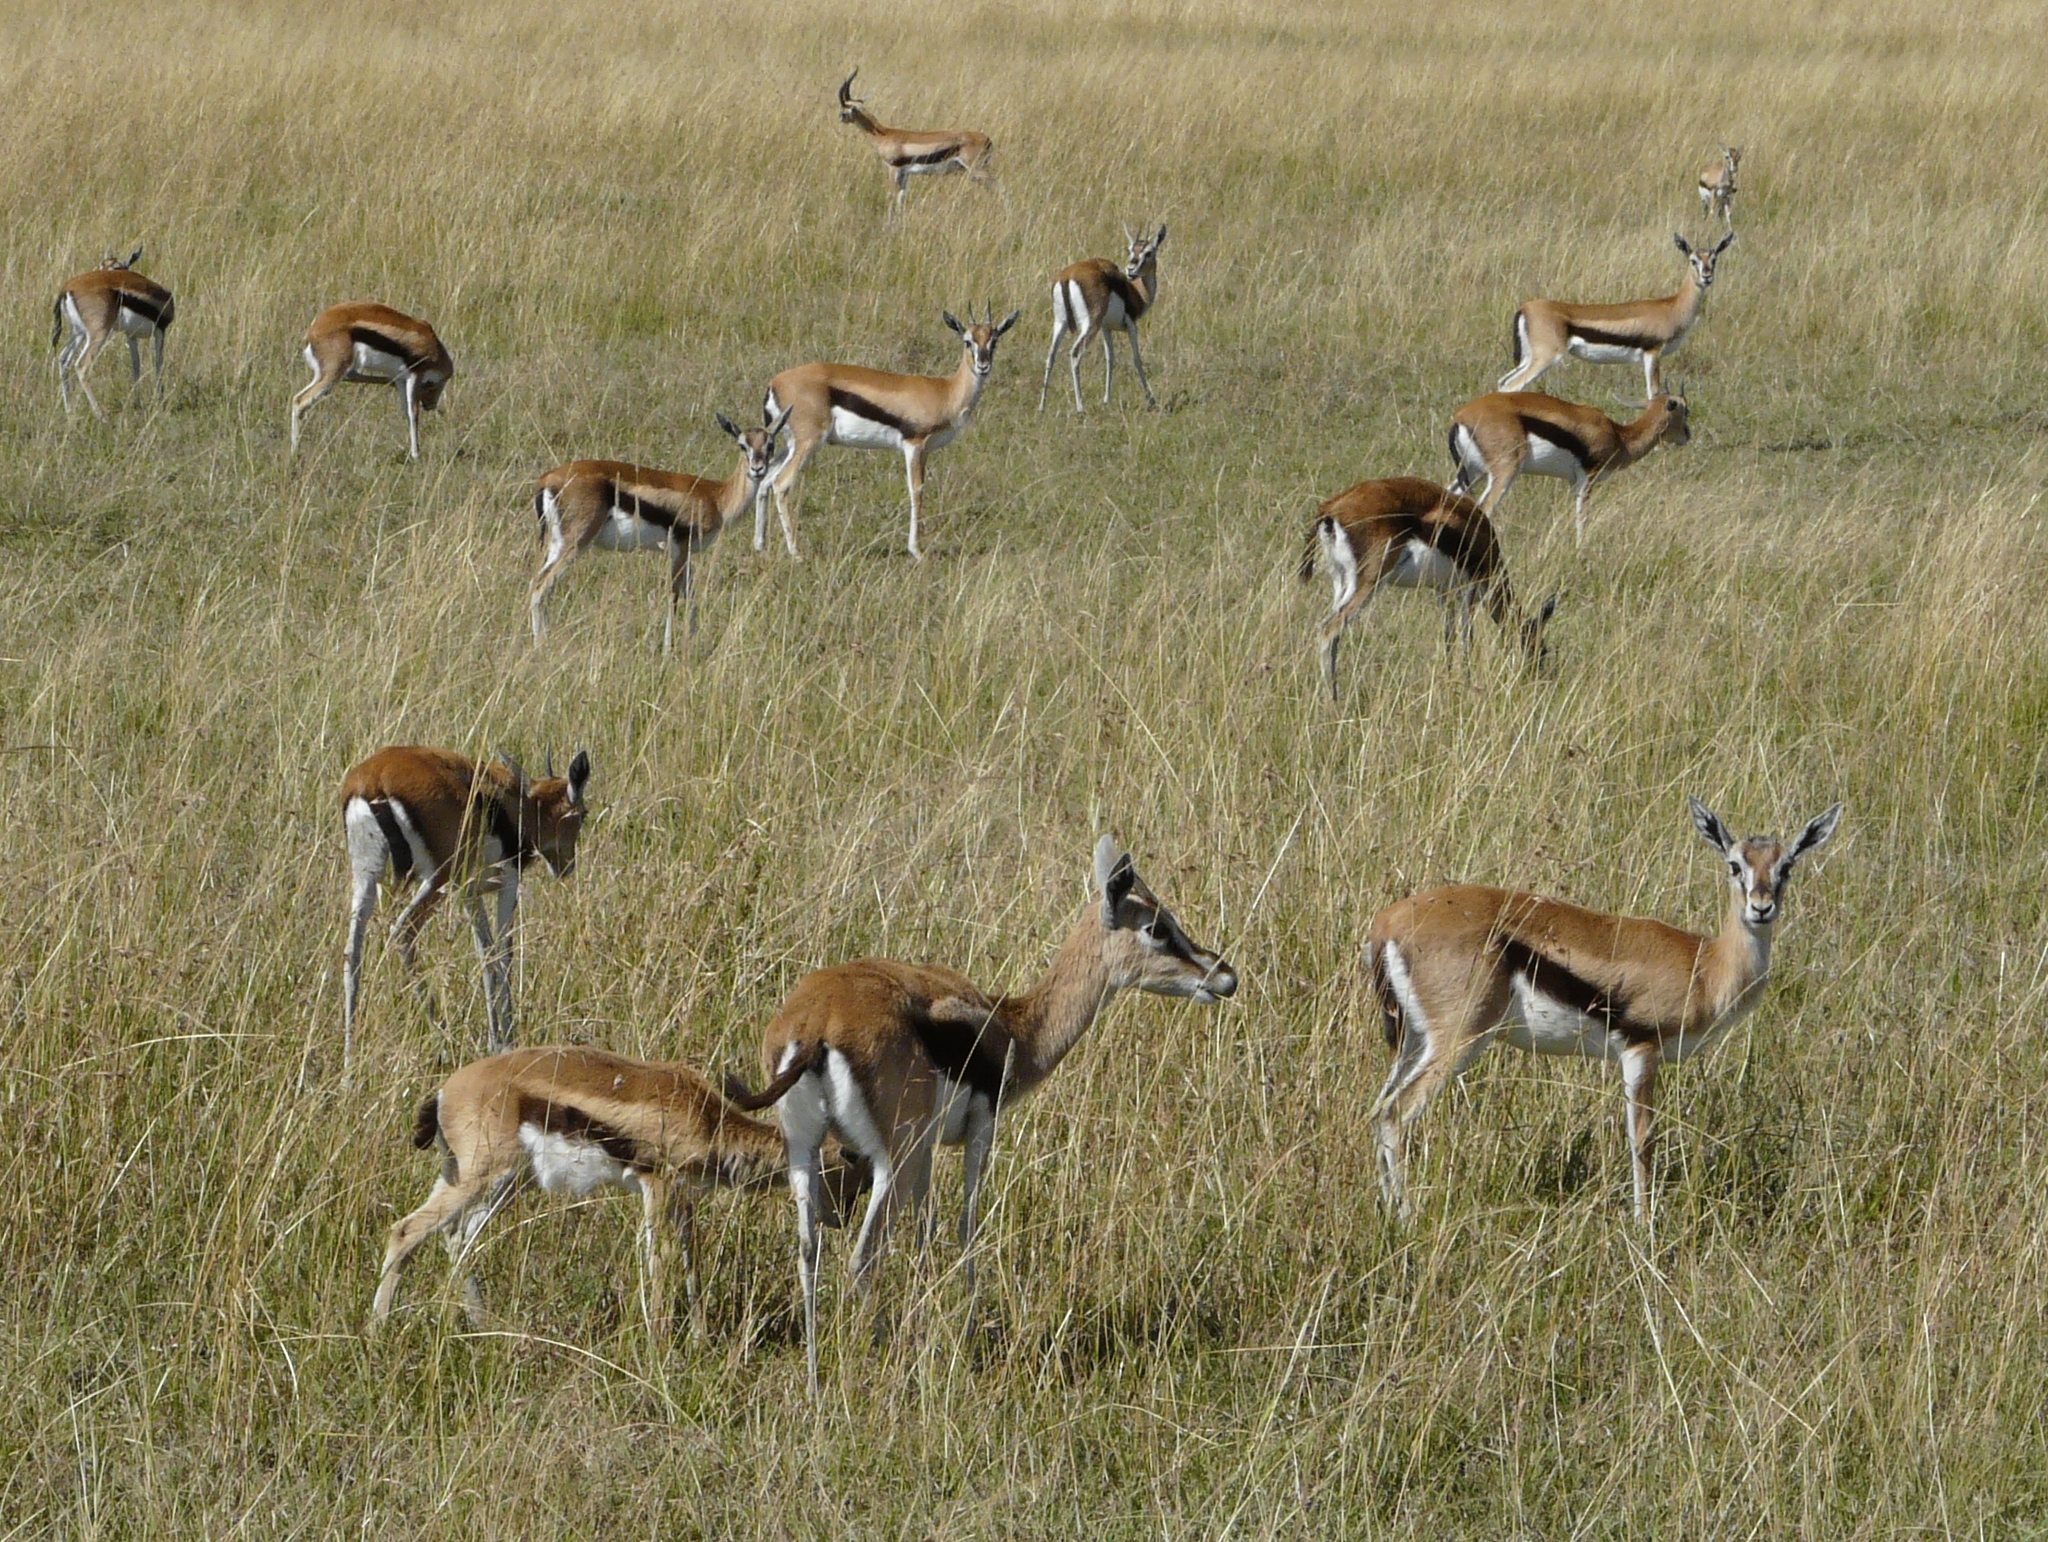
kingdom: Animalia
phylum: Chordata
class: Mammalia
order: Artiodactyla
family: Bovidae
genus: Eudorcas
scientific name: Eudorcas thomsonii
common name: Thomson's gazelle
